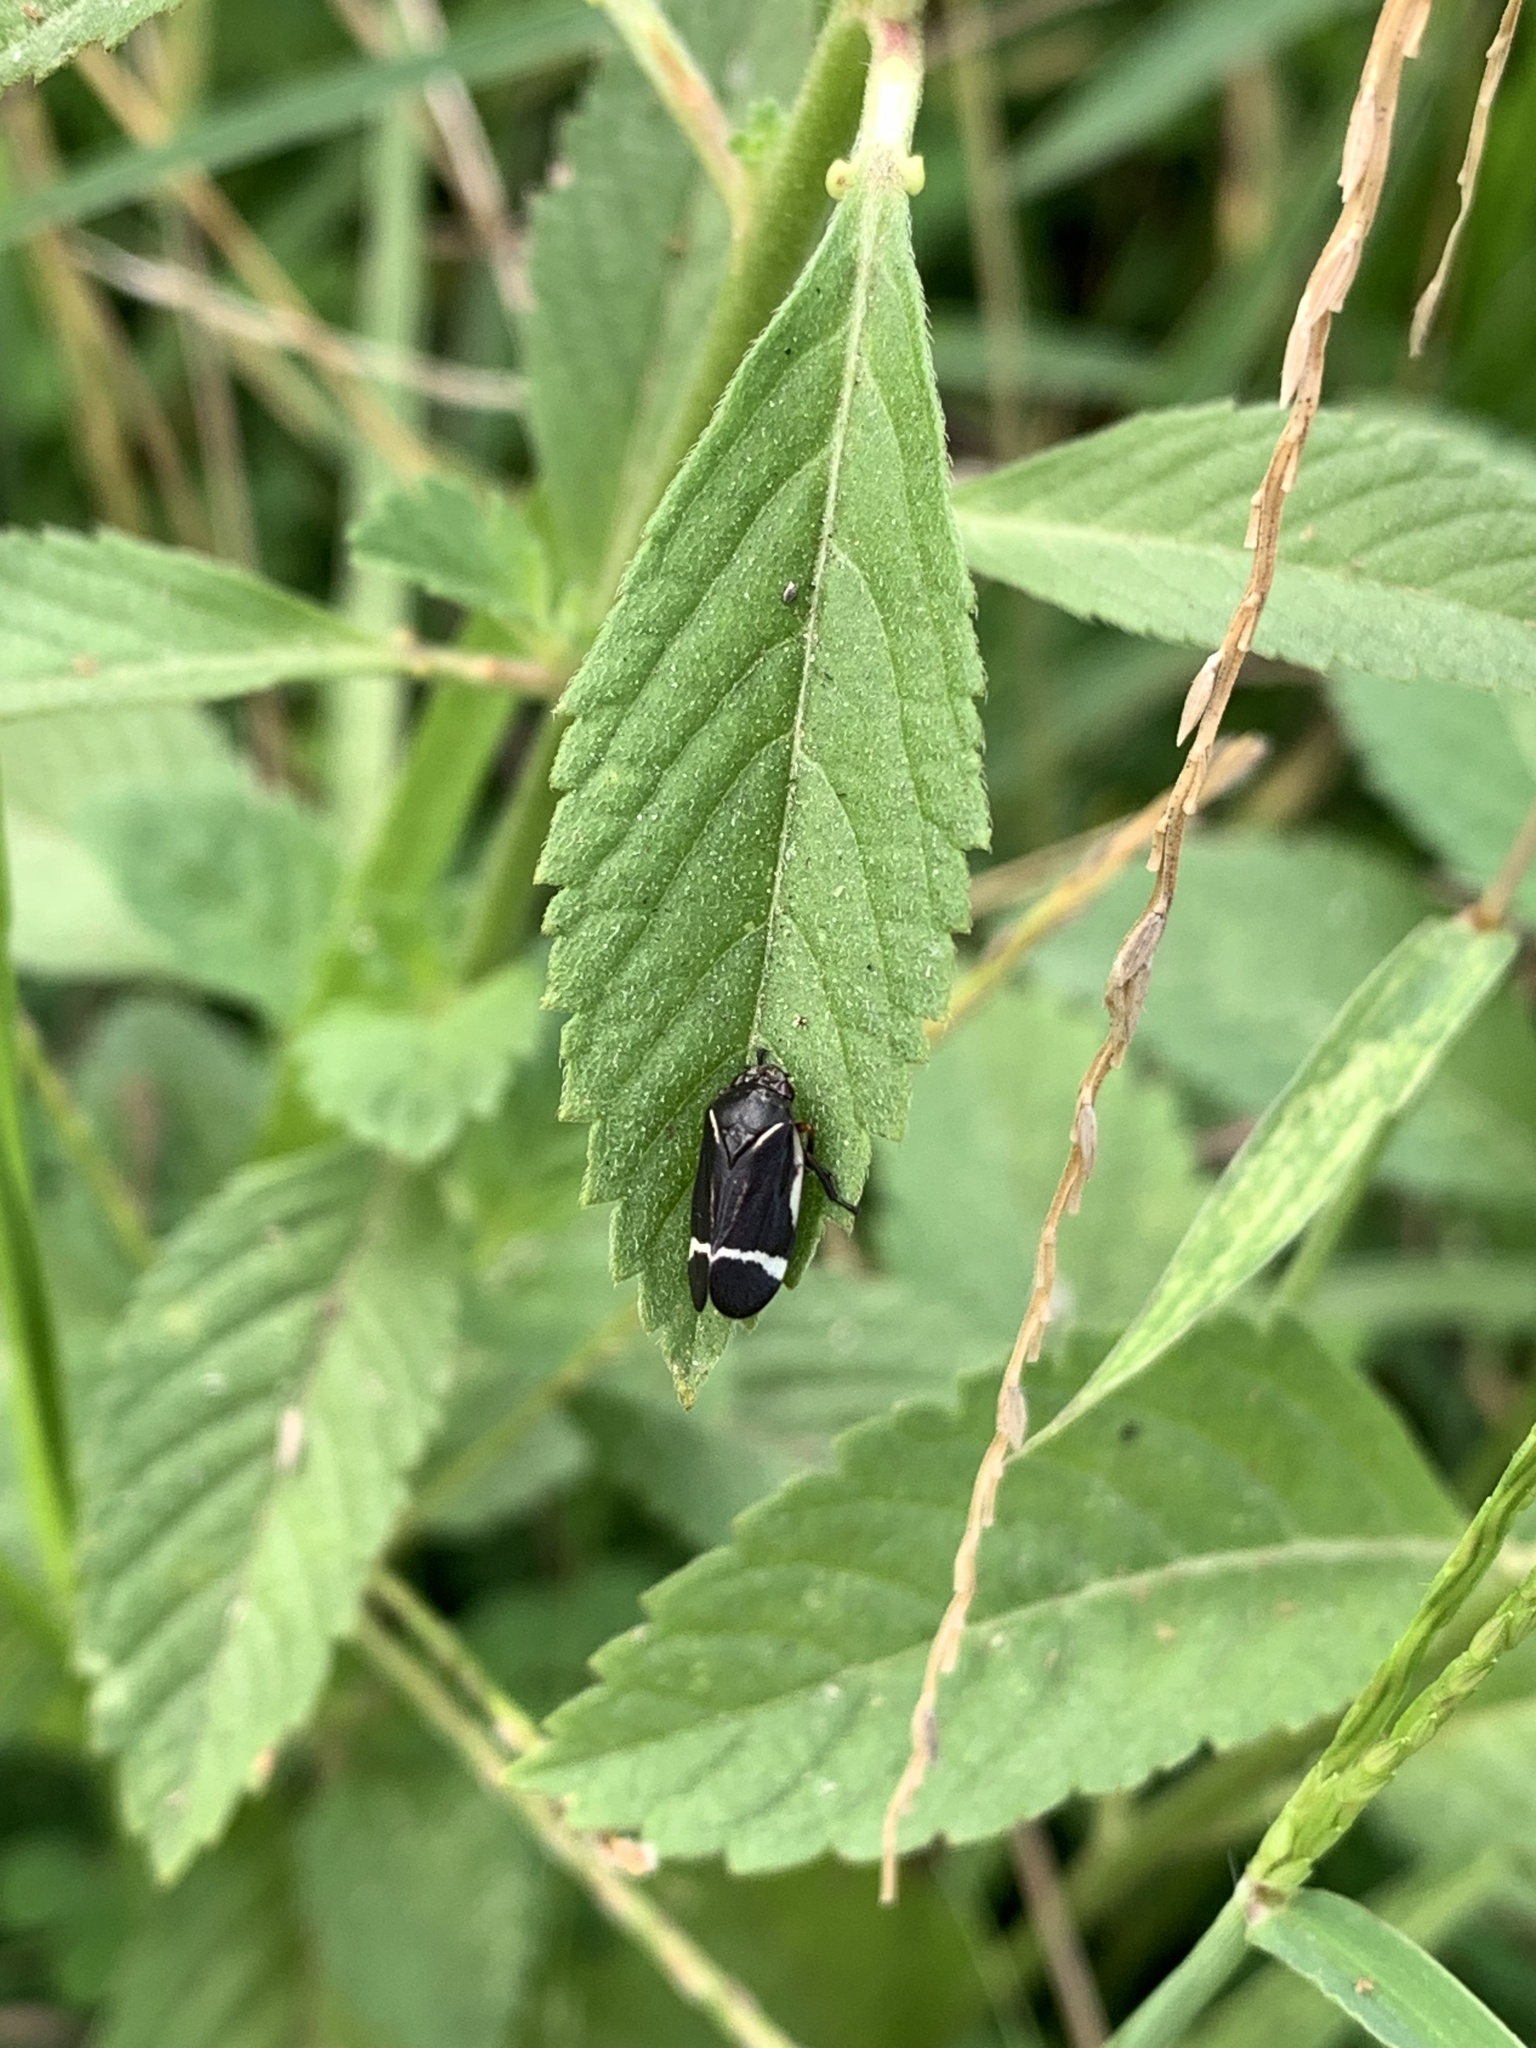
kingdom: Animalia
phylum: Arthropoda
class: Insecta
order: Hemiptera
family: Cercopidae
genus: Notozulia
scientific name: Notozulia entreriana
